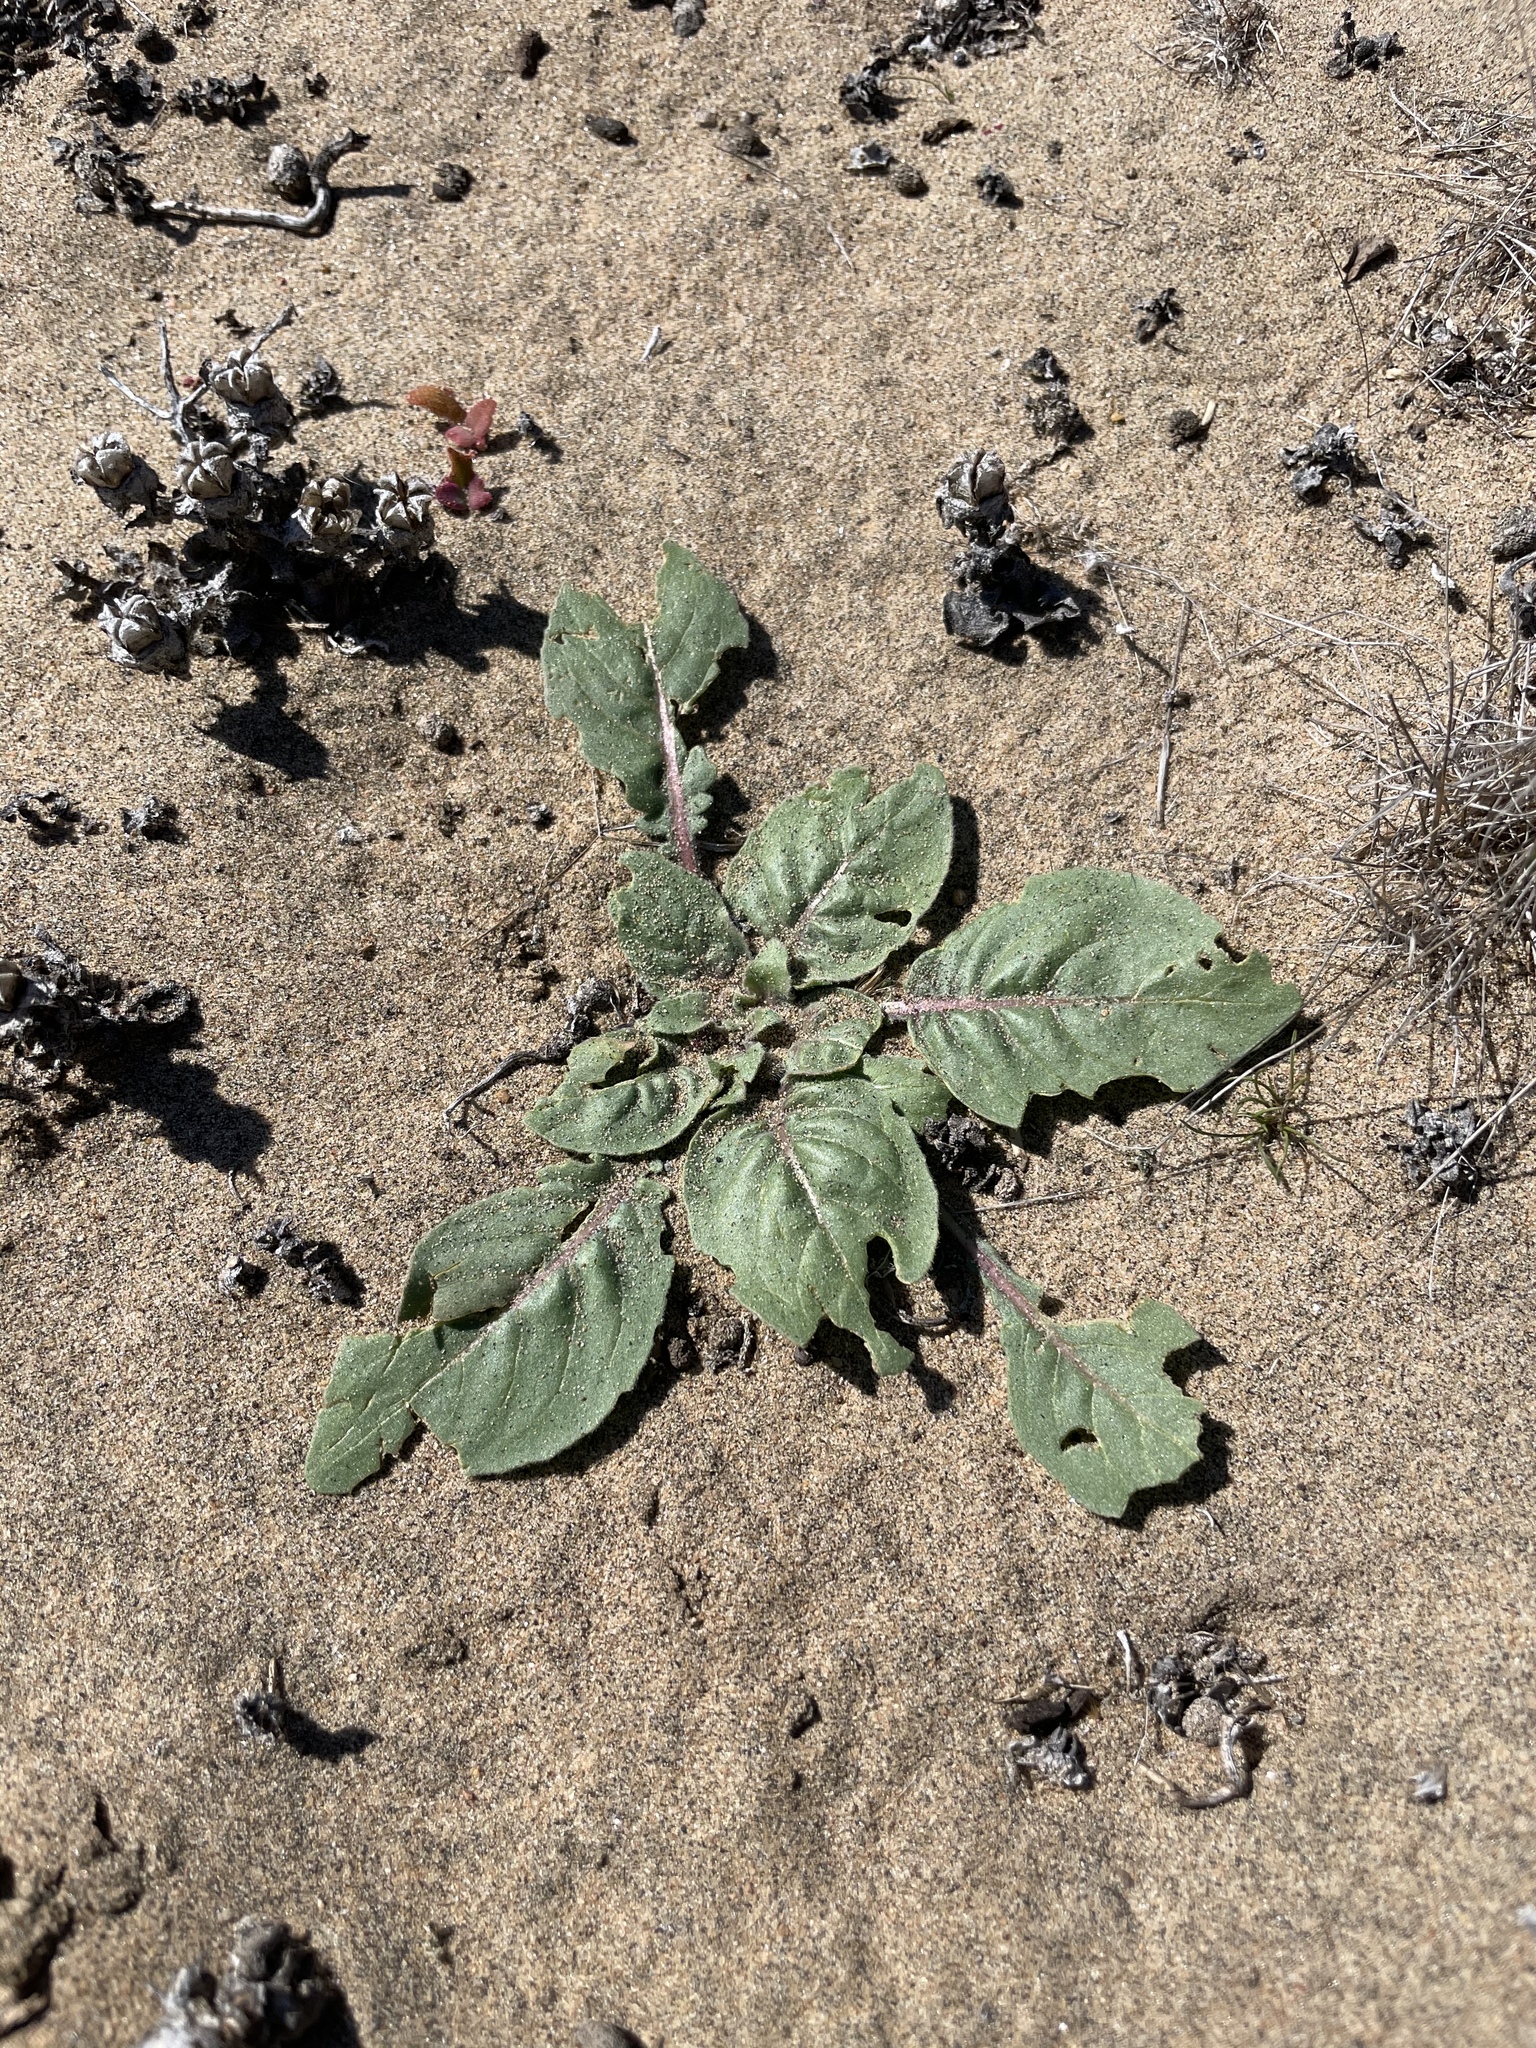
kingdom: Plantae
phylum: Tracheophyta
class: Magnoliopsida
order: Myrtales
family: Onagraceae
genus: Oenothera
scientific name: Oenothera wigginsii
